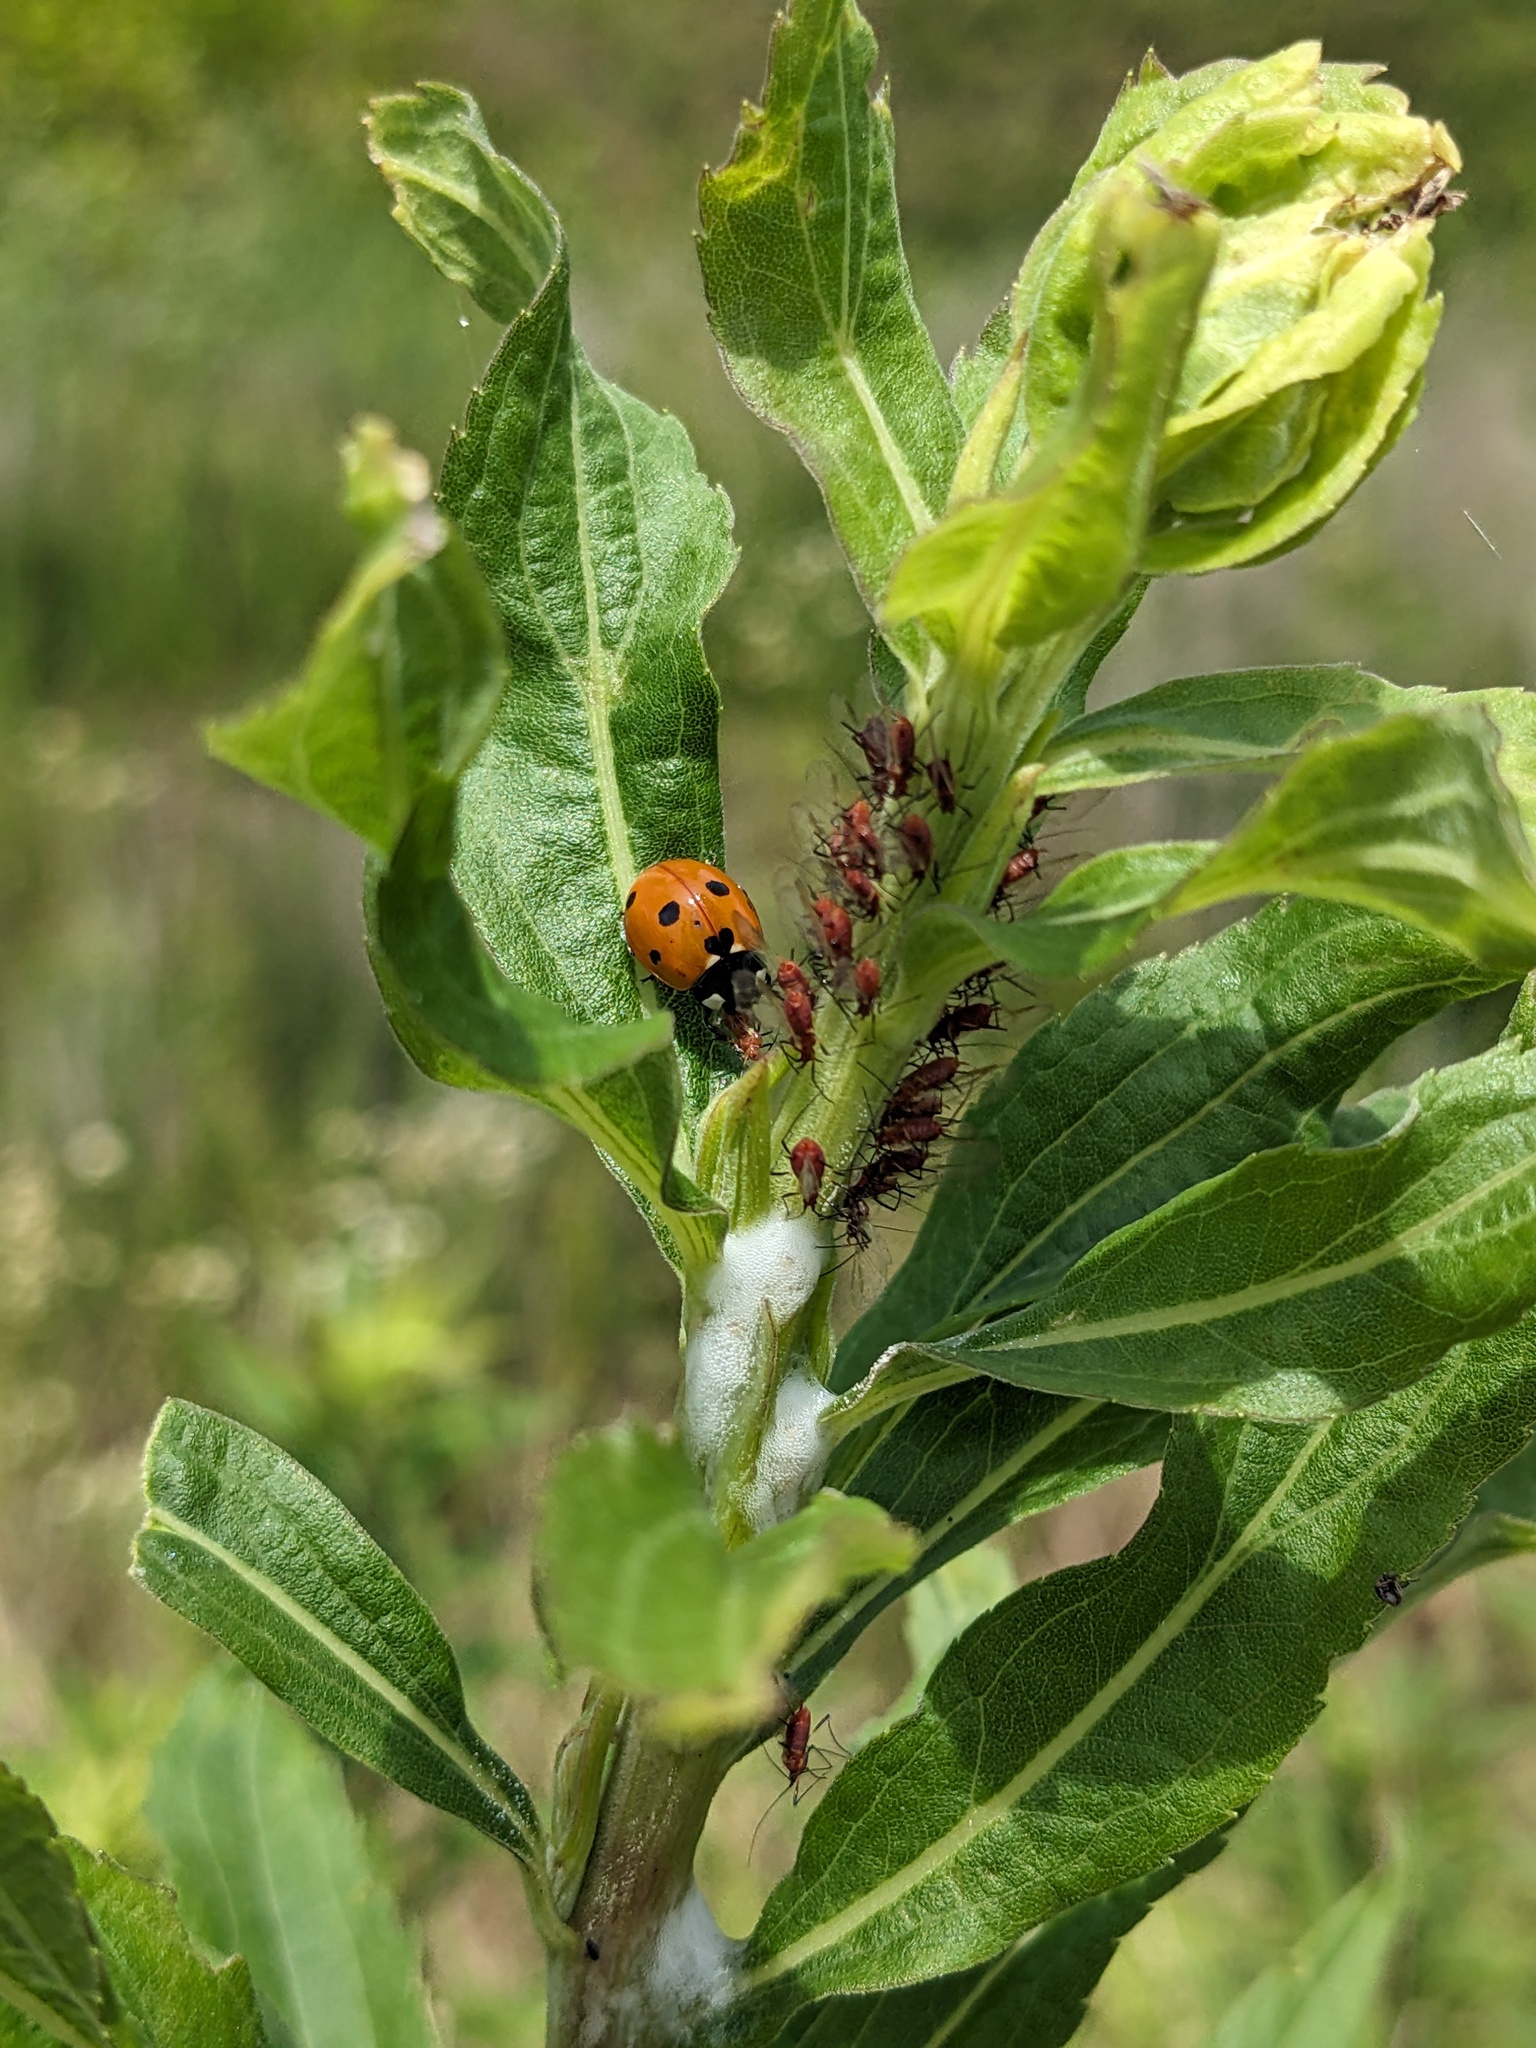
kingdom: Animalia
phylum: Arthropoda
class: Insecta
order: Coleoptera
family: Coccinellidae
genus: Coccinella
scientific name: Coccinella septempunctata
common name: Sevenspotted lady beetle
